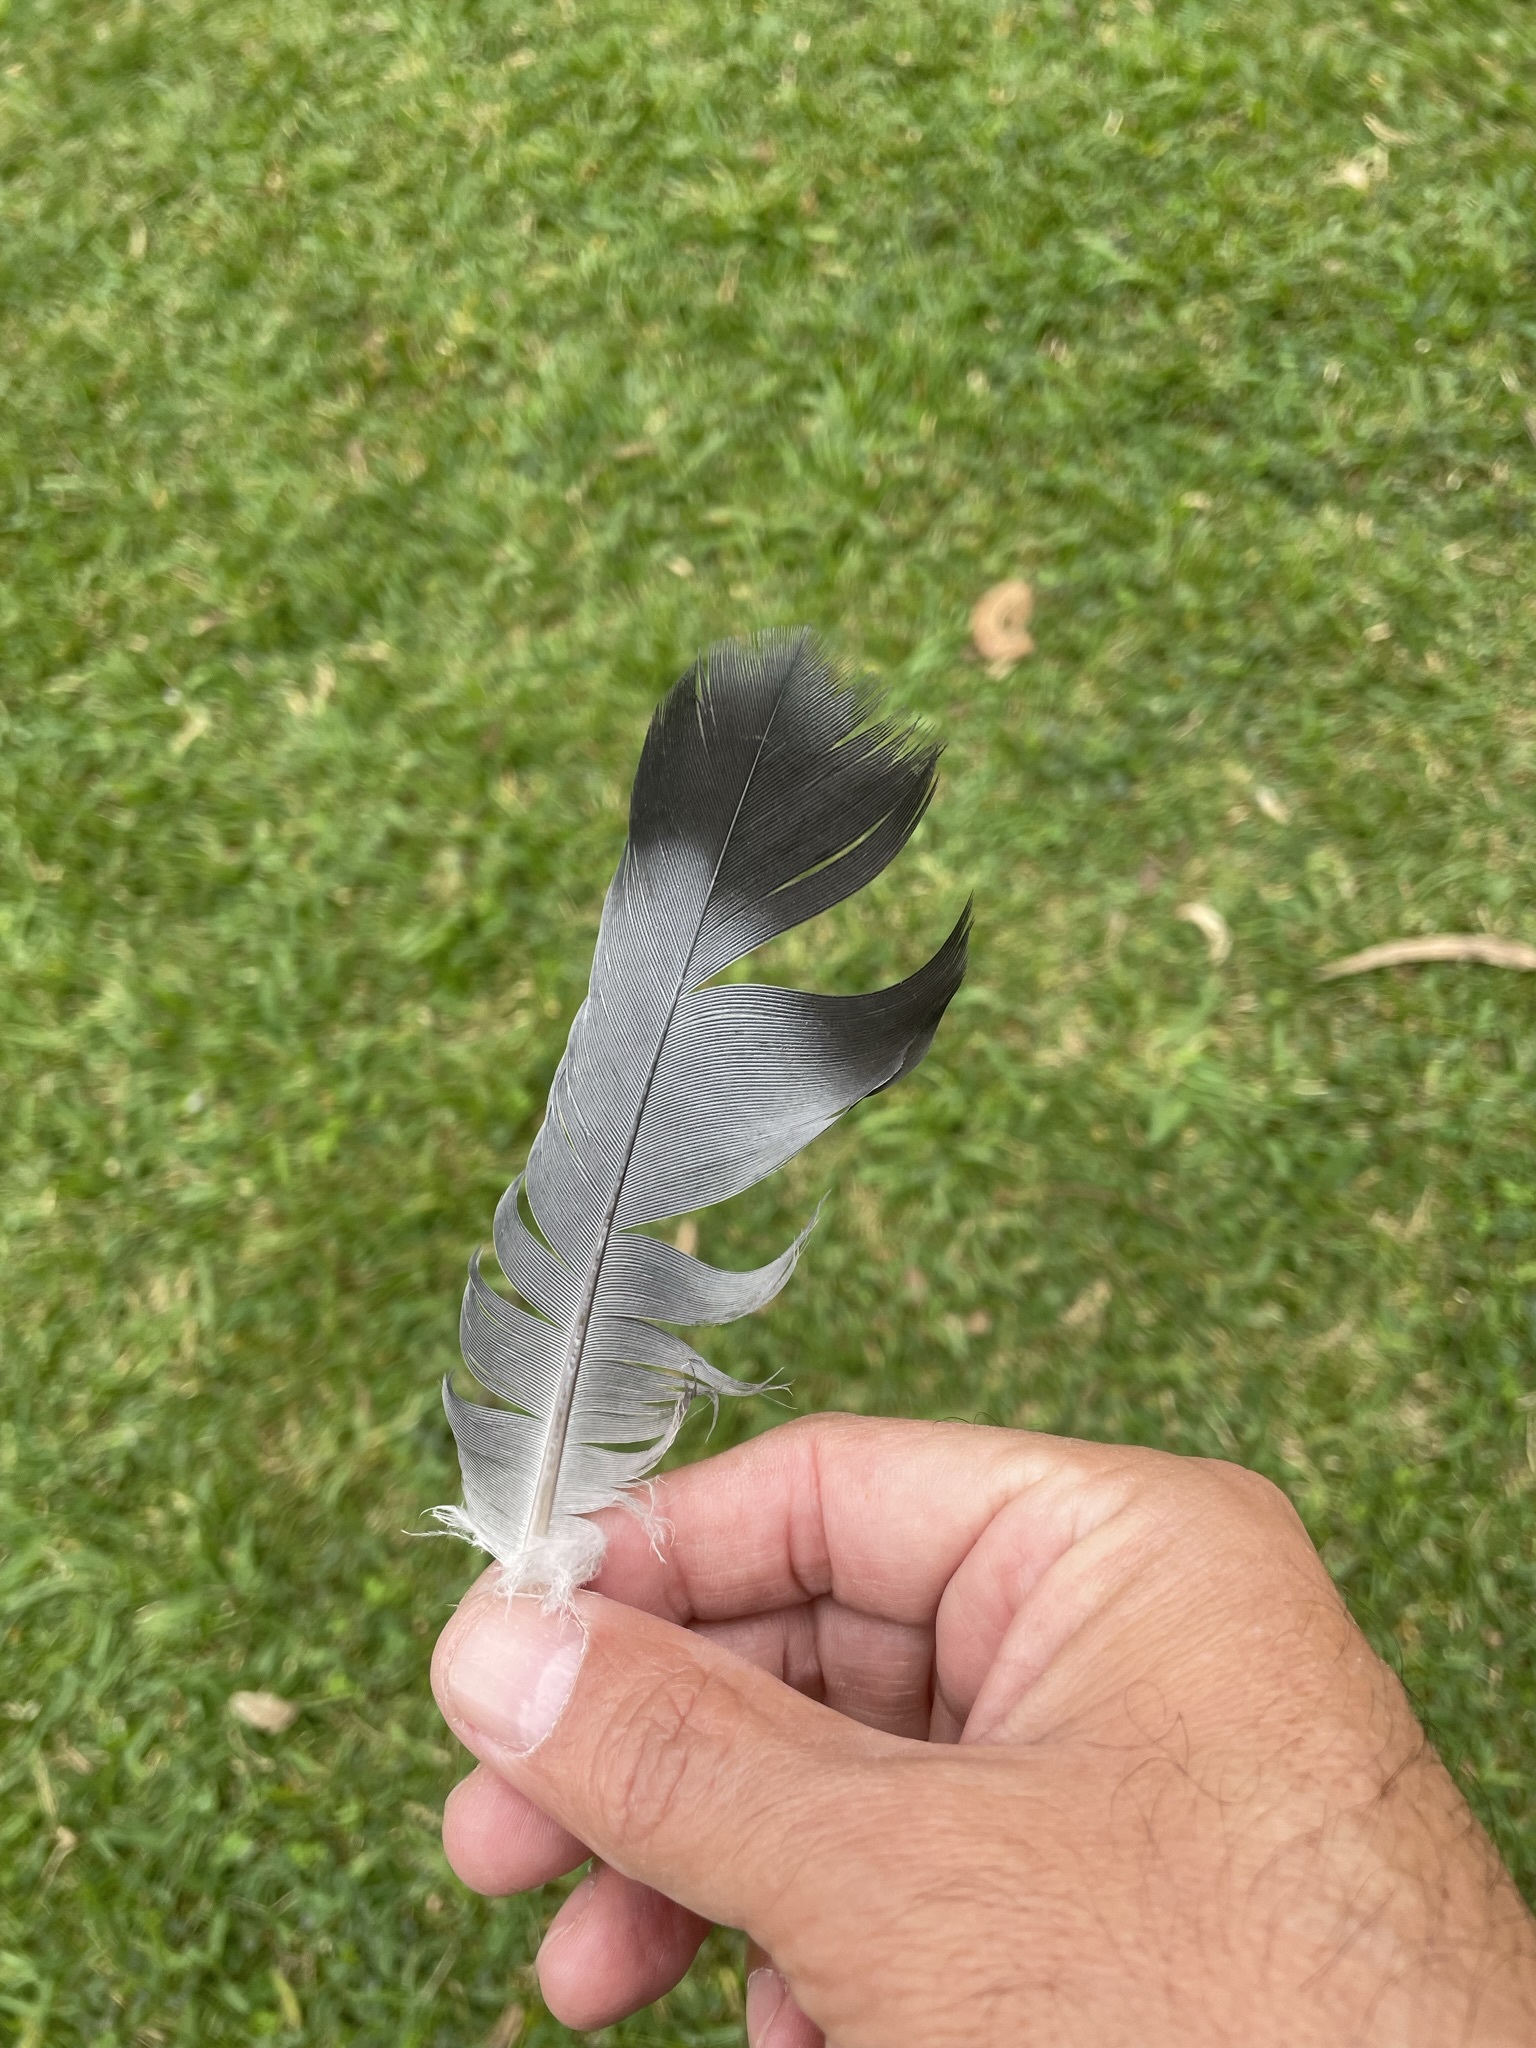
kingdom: Animalia
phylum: Chordata
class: Aves
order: Columbiformes
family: Columbidae
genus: Columba
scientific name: Columba livia
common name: Rock pigeon
